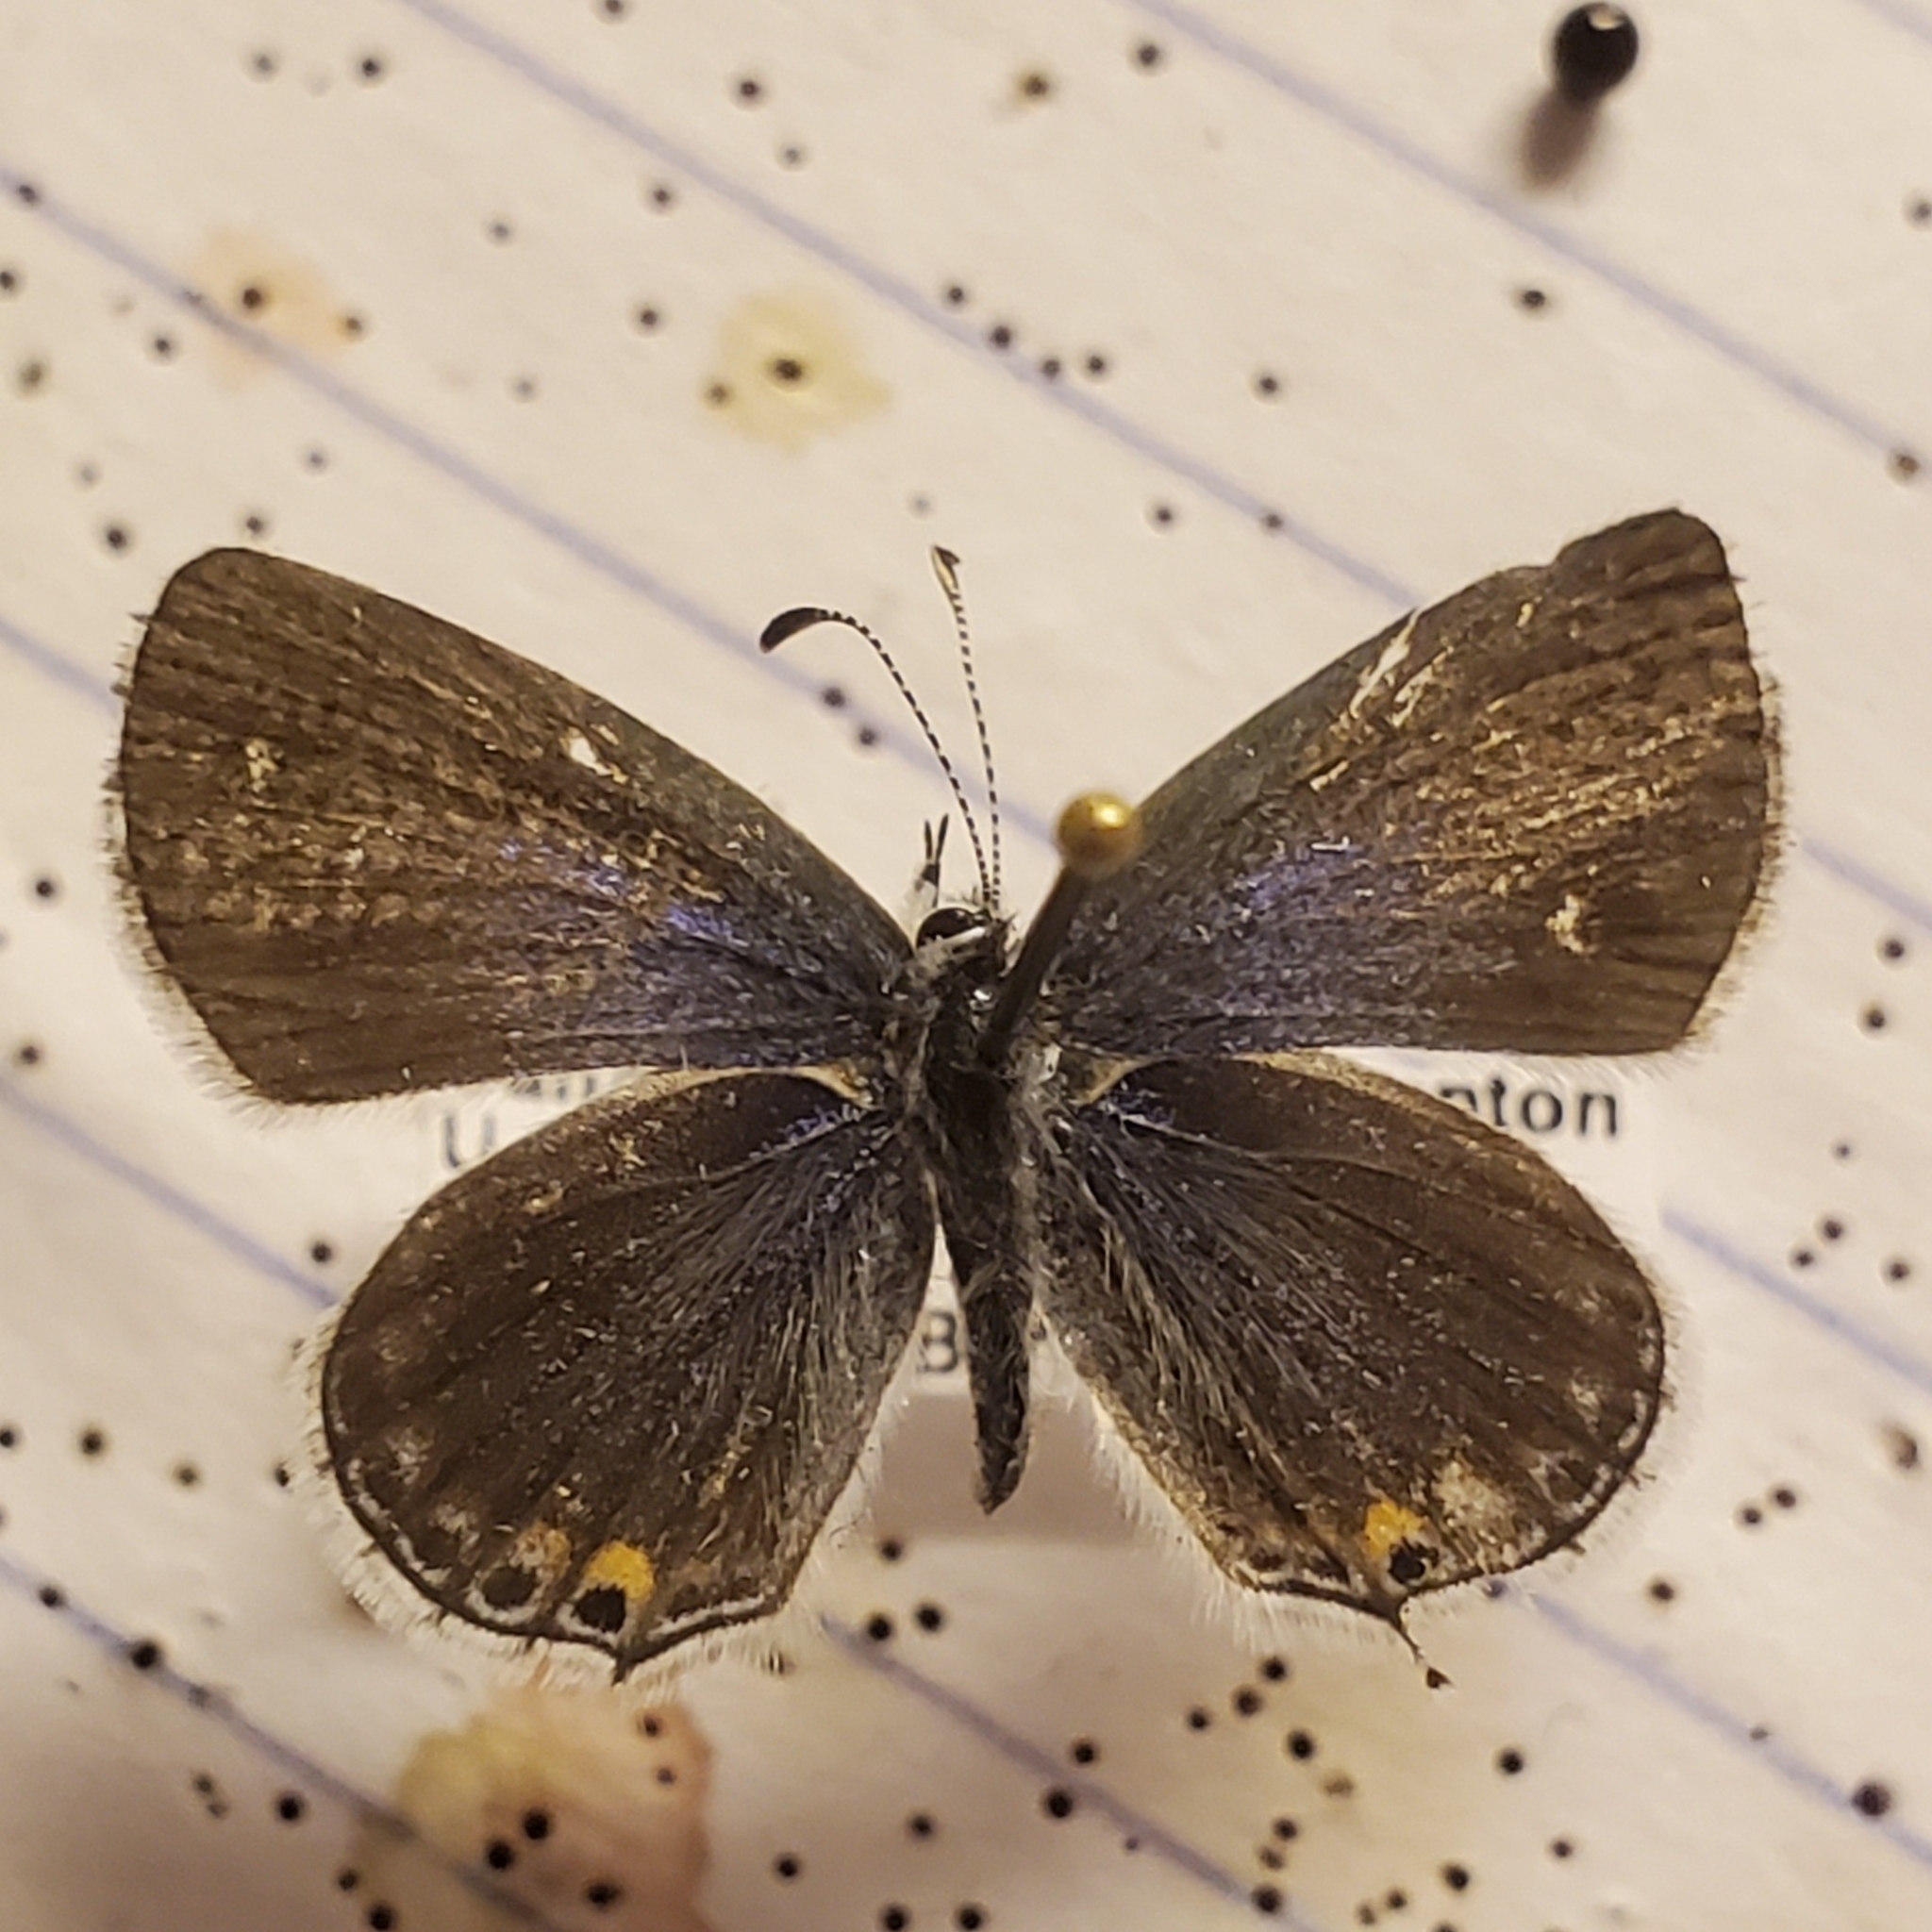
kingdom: Animalia
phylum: Arthropoda
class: Insecta
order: Lepidoptera
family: Lycaenidae
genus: Elkalyce
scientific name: Elkalyce amyntula
